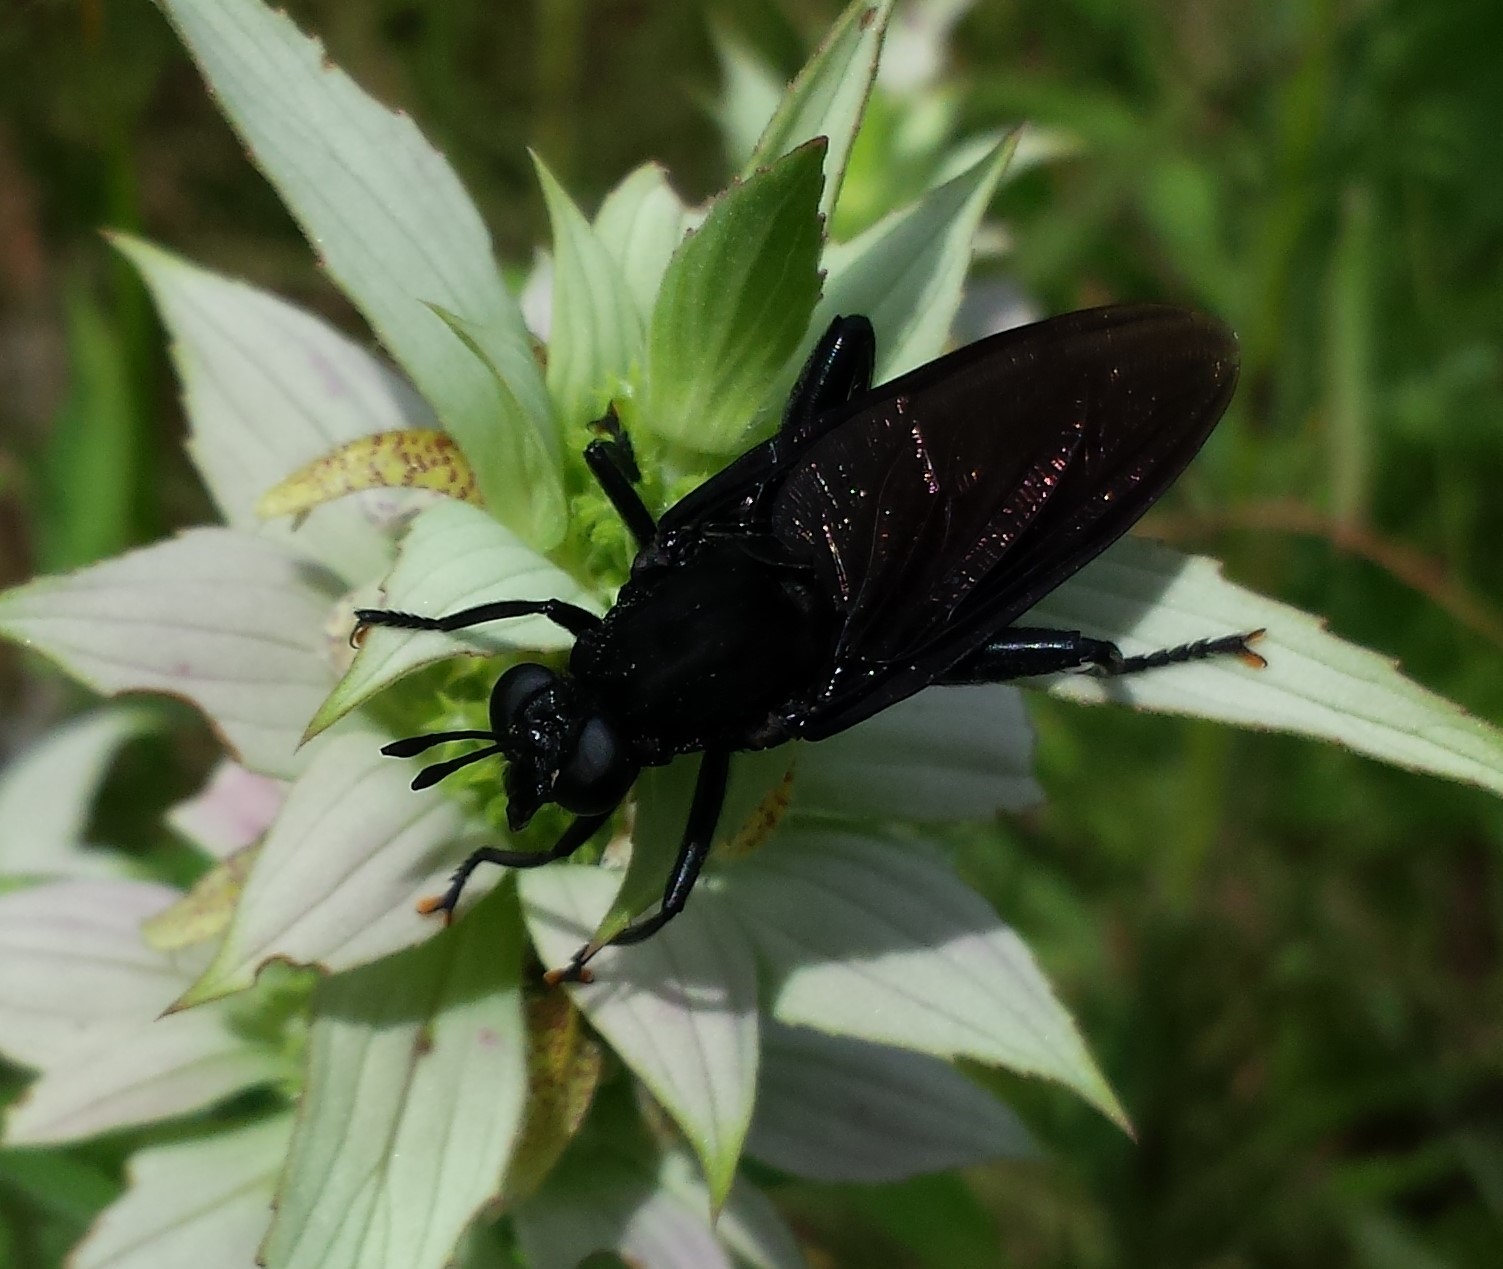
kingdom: Animalia
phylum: Arthropoda
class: Insecta
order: Diptera
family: Mydidae
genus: Mydas
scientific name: Mydas clavatus
